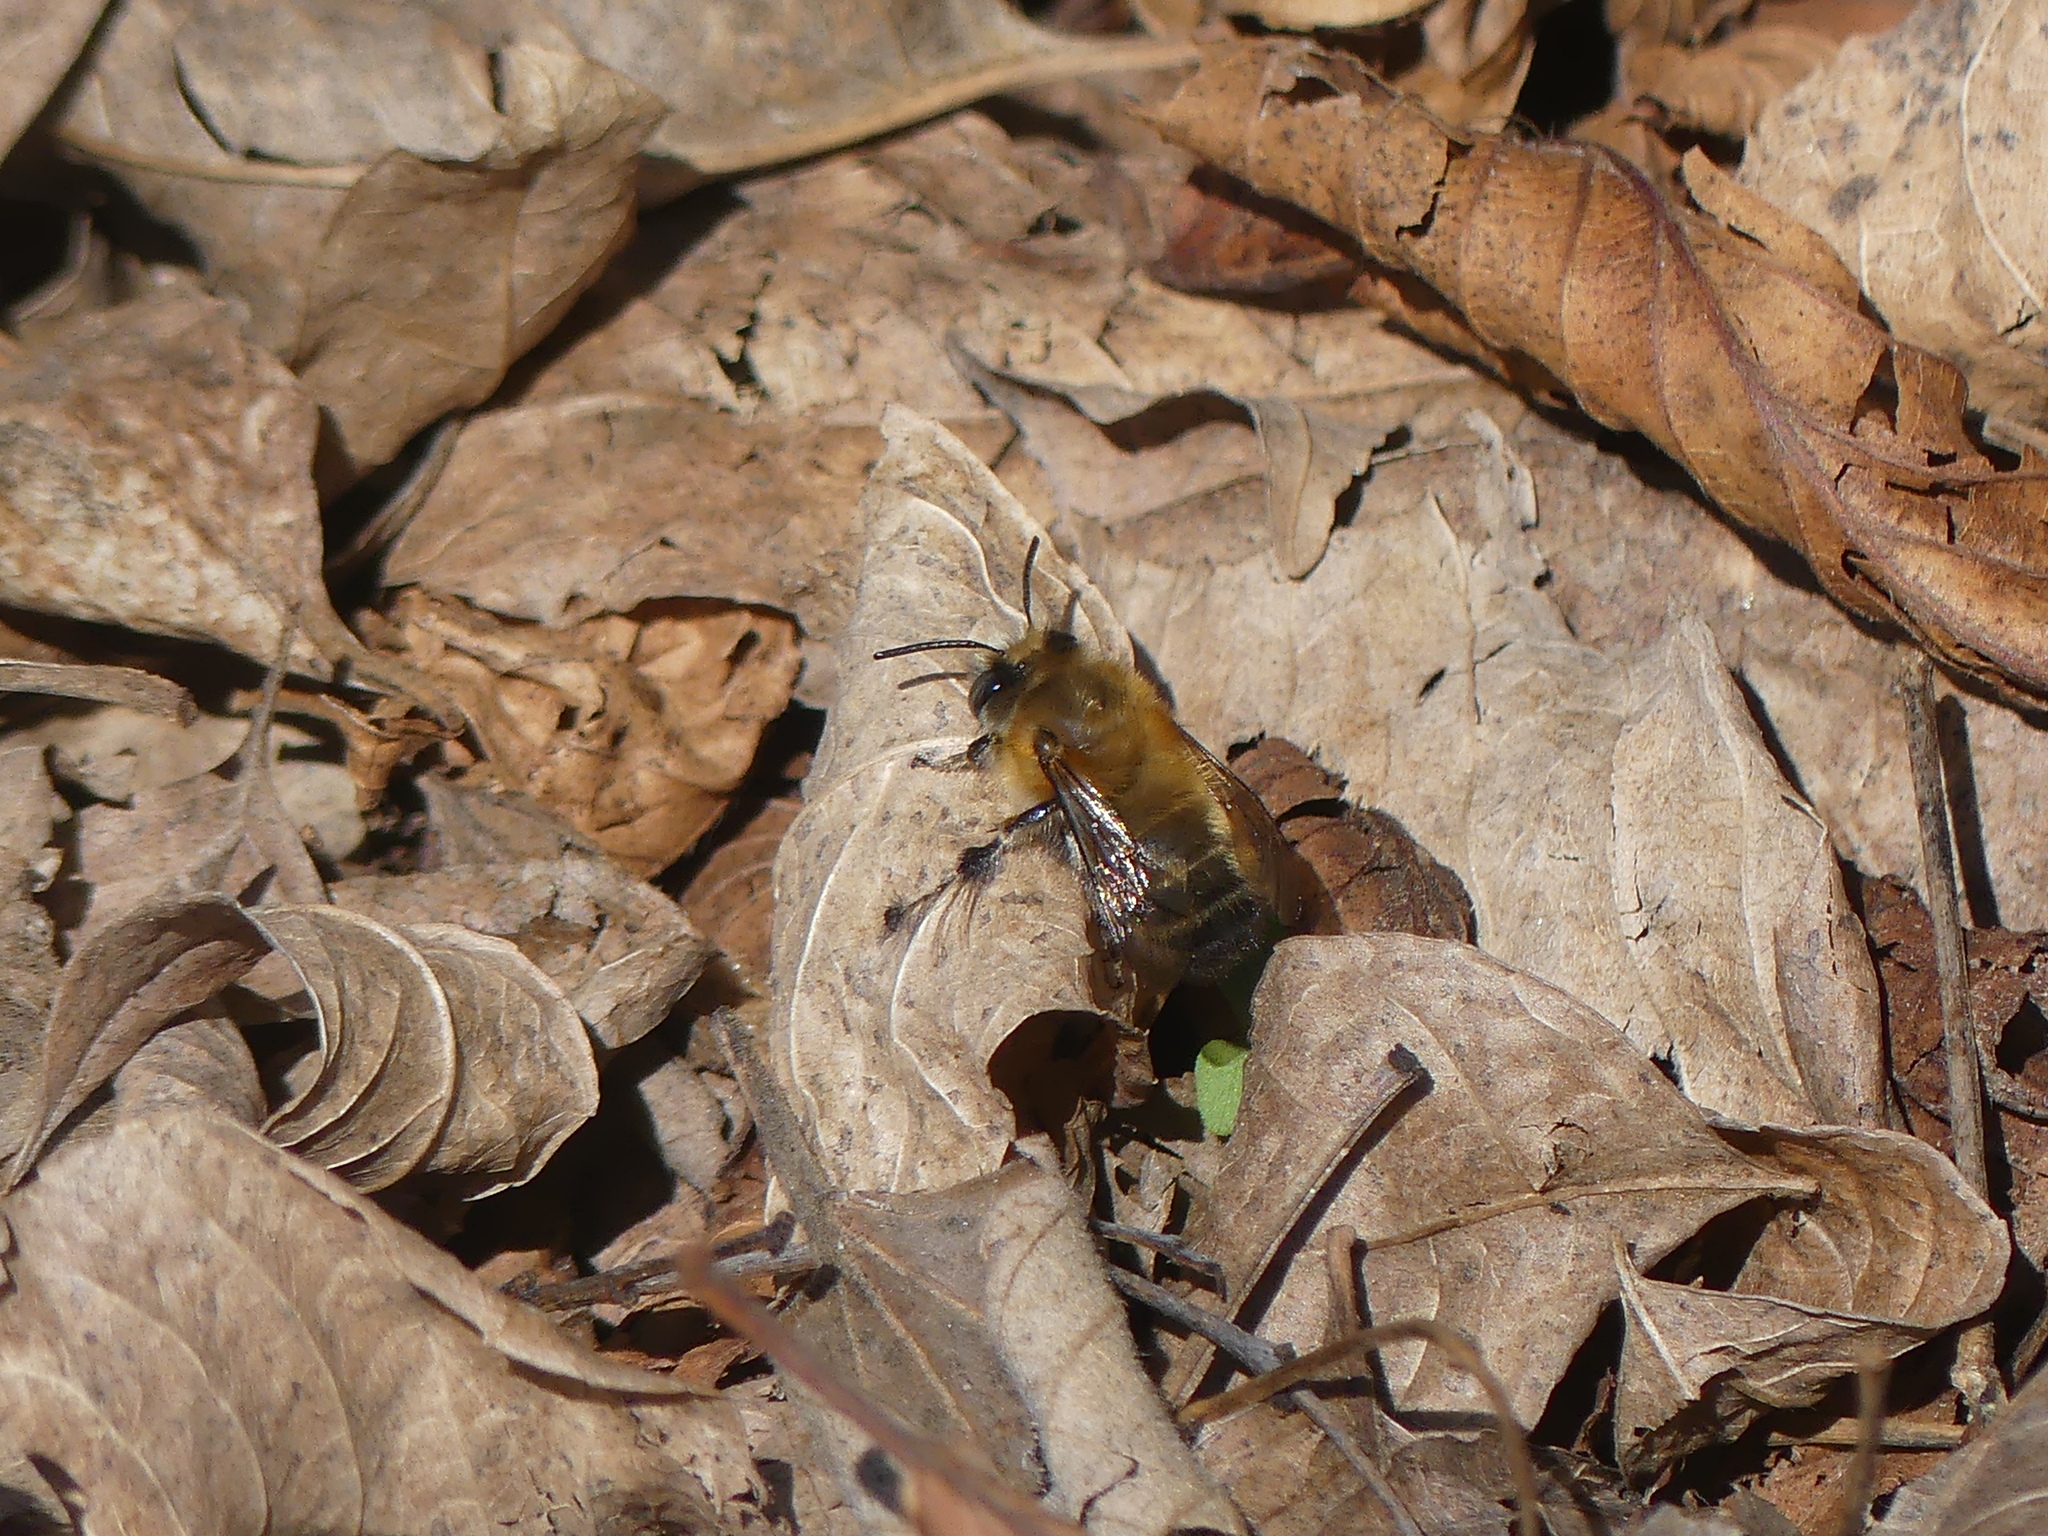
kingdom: Animalia
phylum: Arthropoda
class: Insecta
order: Hymenoptera
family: Apidae
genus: Anthophora
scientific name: Anthophora plumipes
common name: Hairy-footed flower bee
